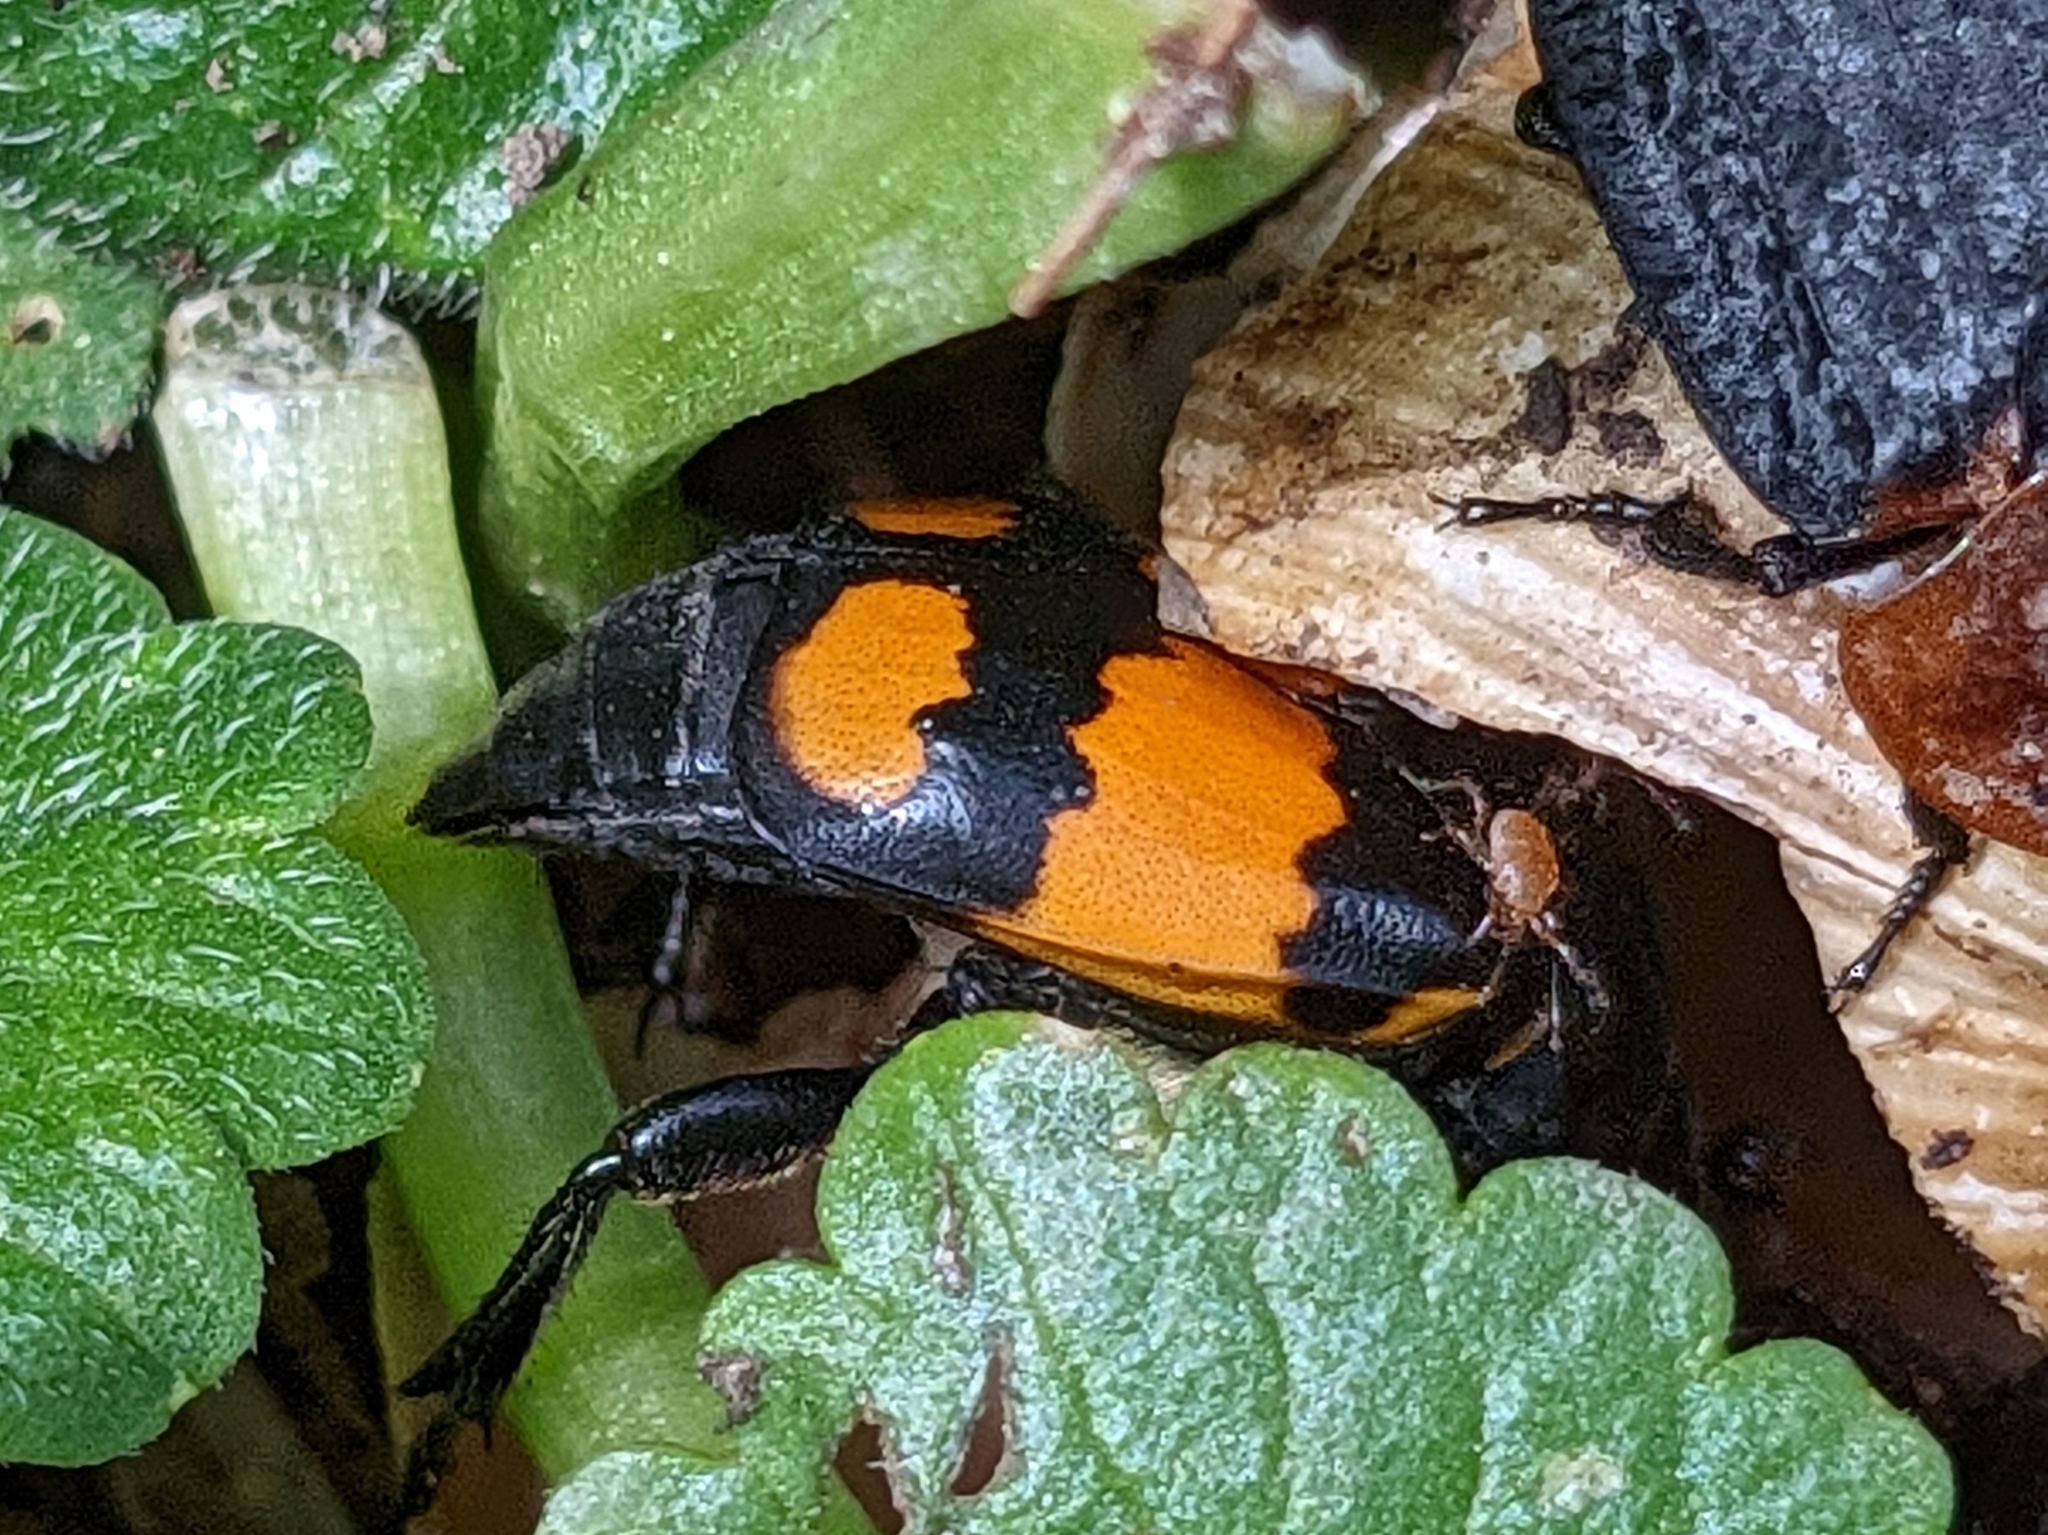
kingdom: Animalia
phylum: Arthropoda
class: Insecta
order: Coleoptera
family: Staphylinidae
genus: Nicrophorus
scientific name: Nicrophorus vespilloides
